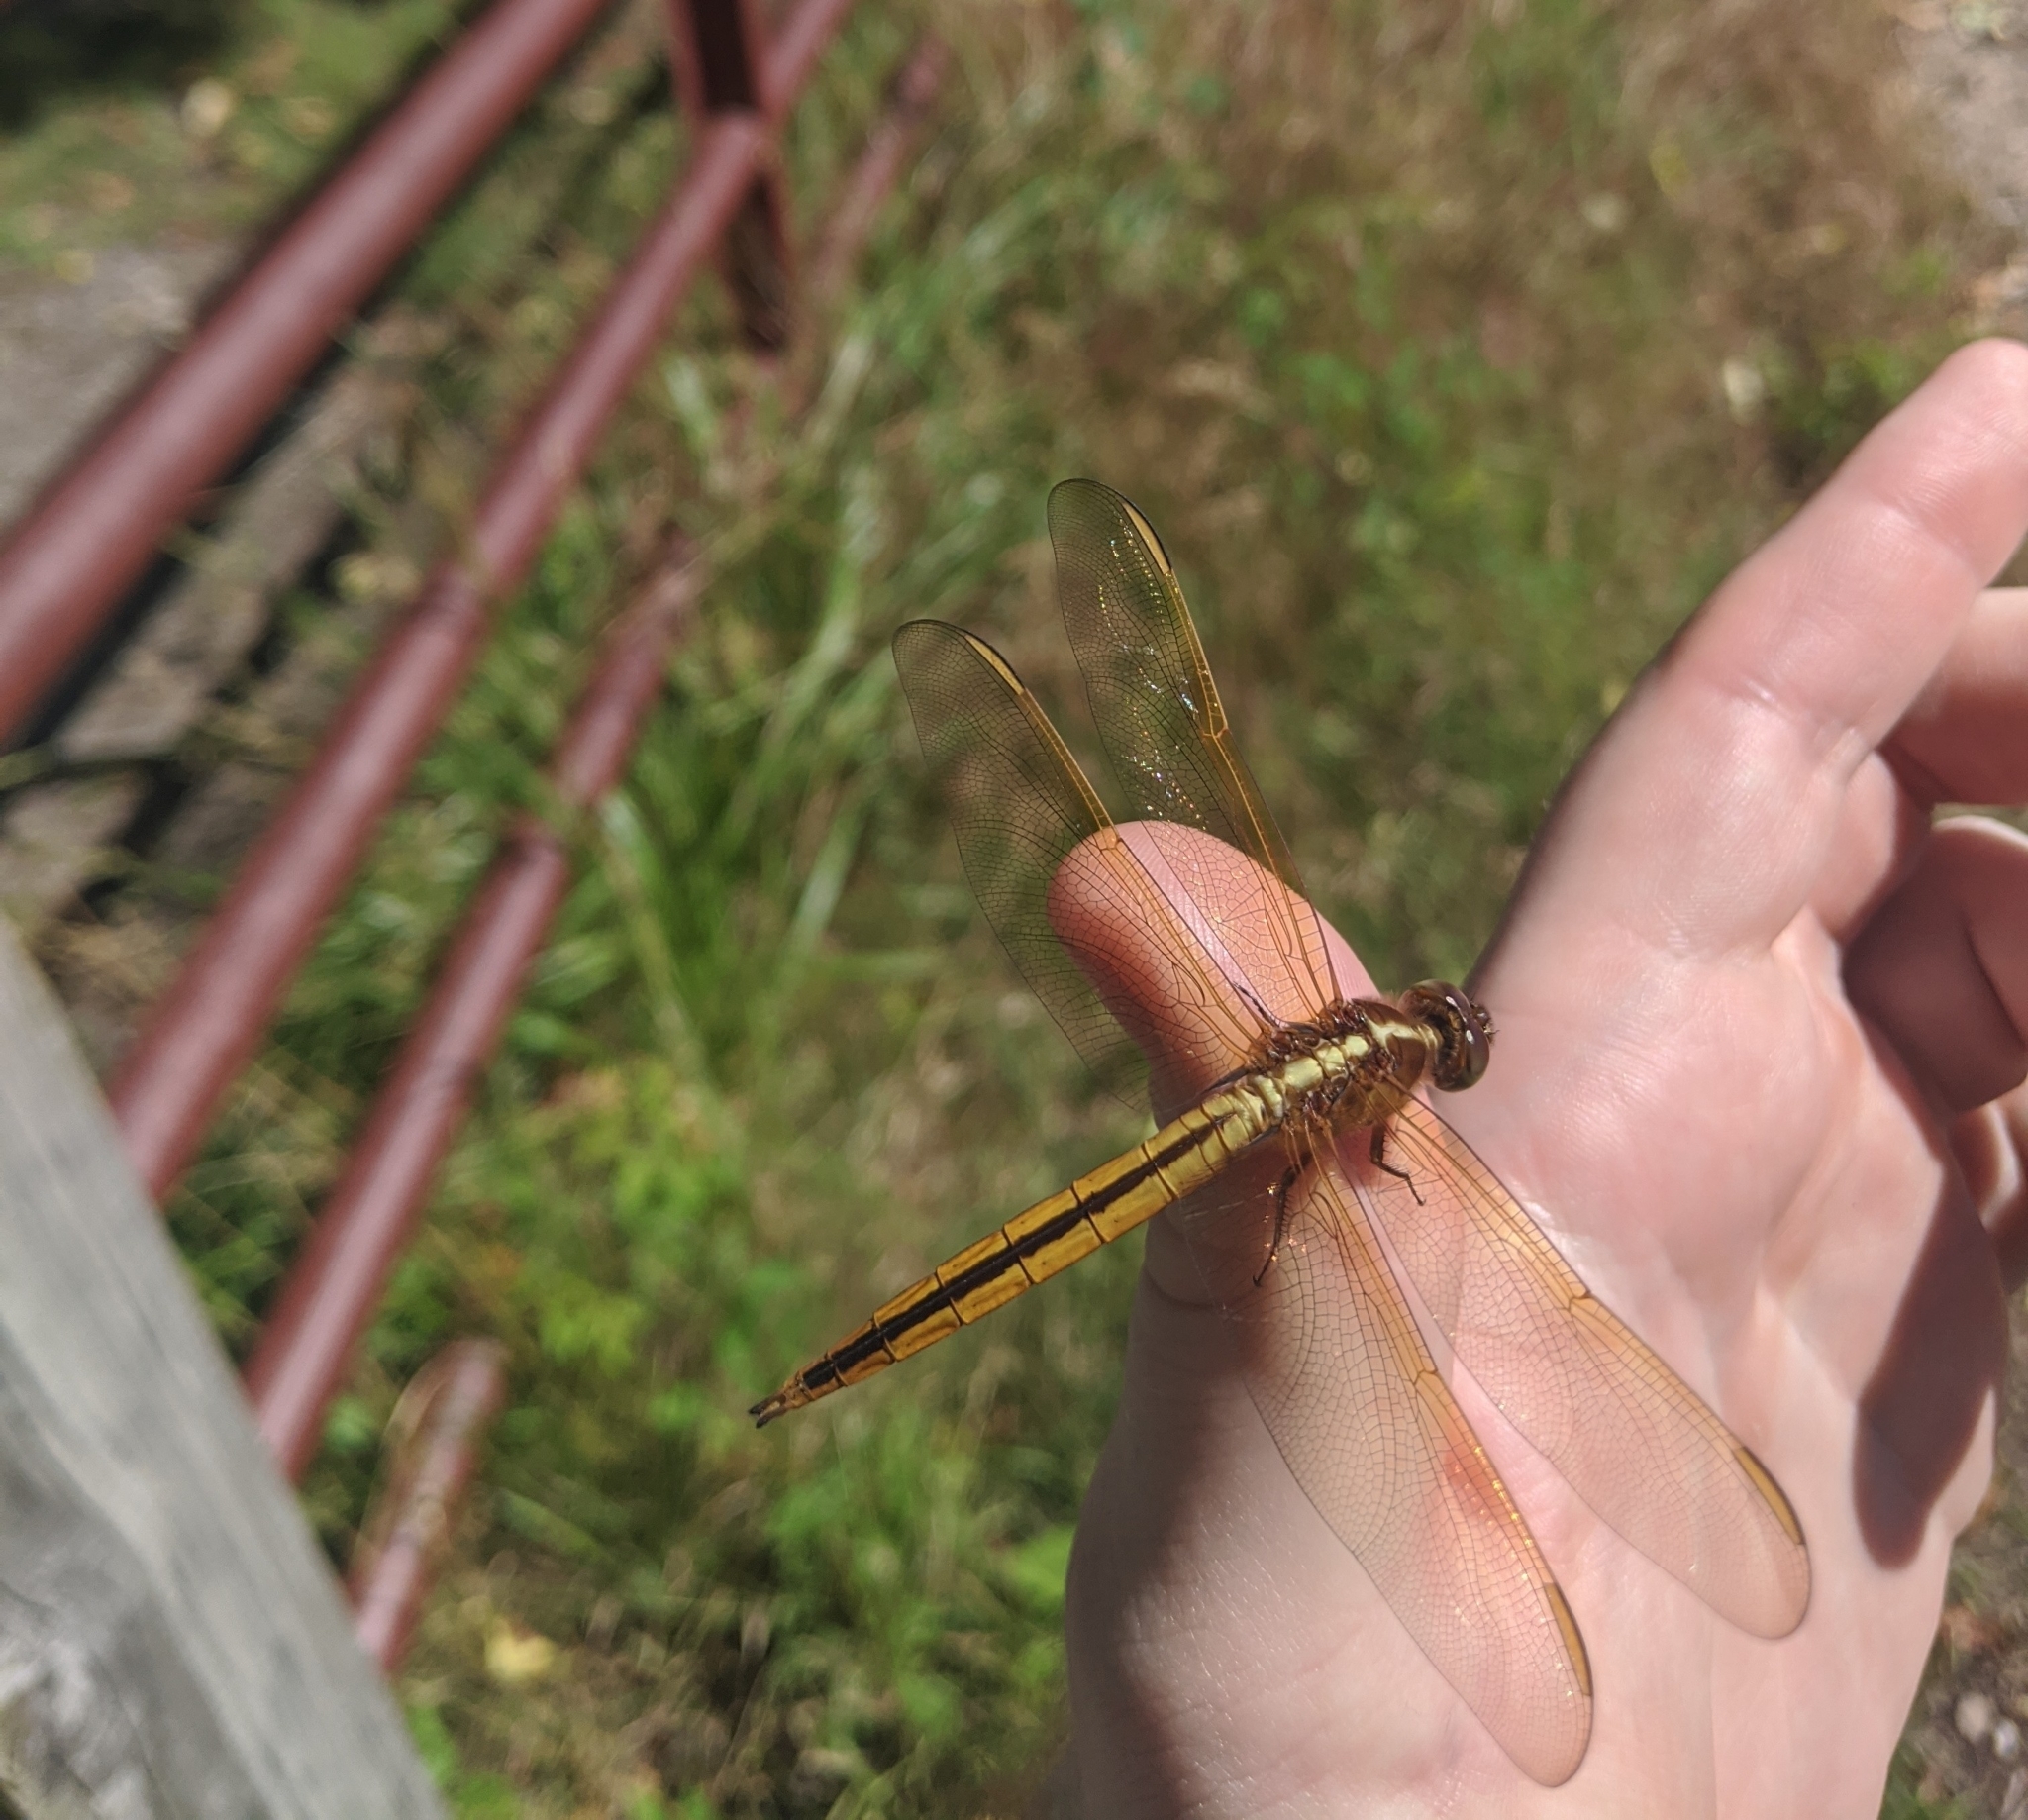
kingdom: Animalia
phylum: Arthropoda
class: Insecta
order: Odonata
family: Libellulidae
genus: Libellula
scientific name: Libellula needhami
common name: Needham's skimmer
